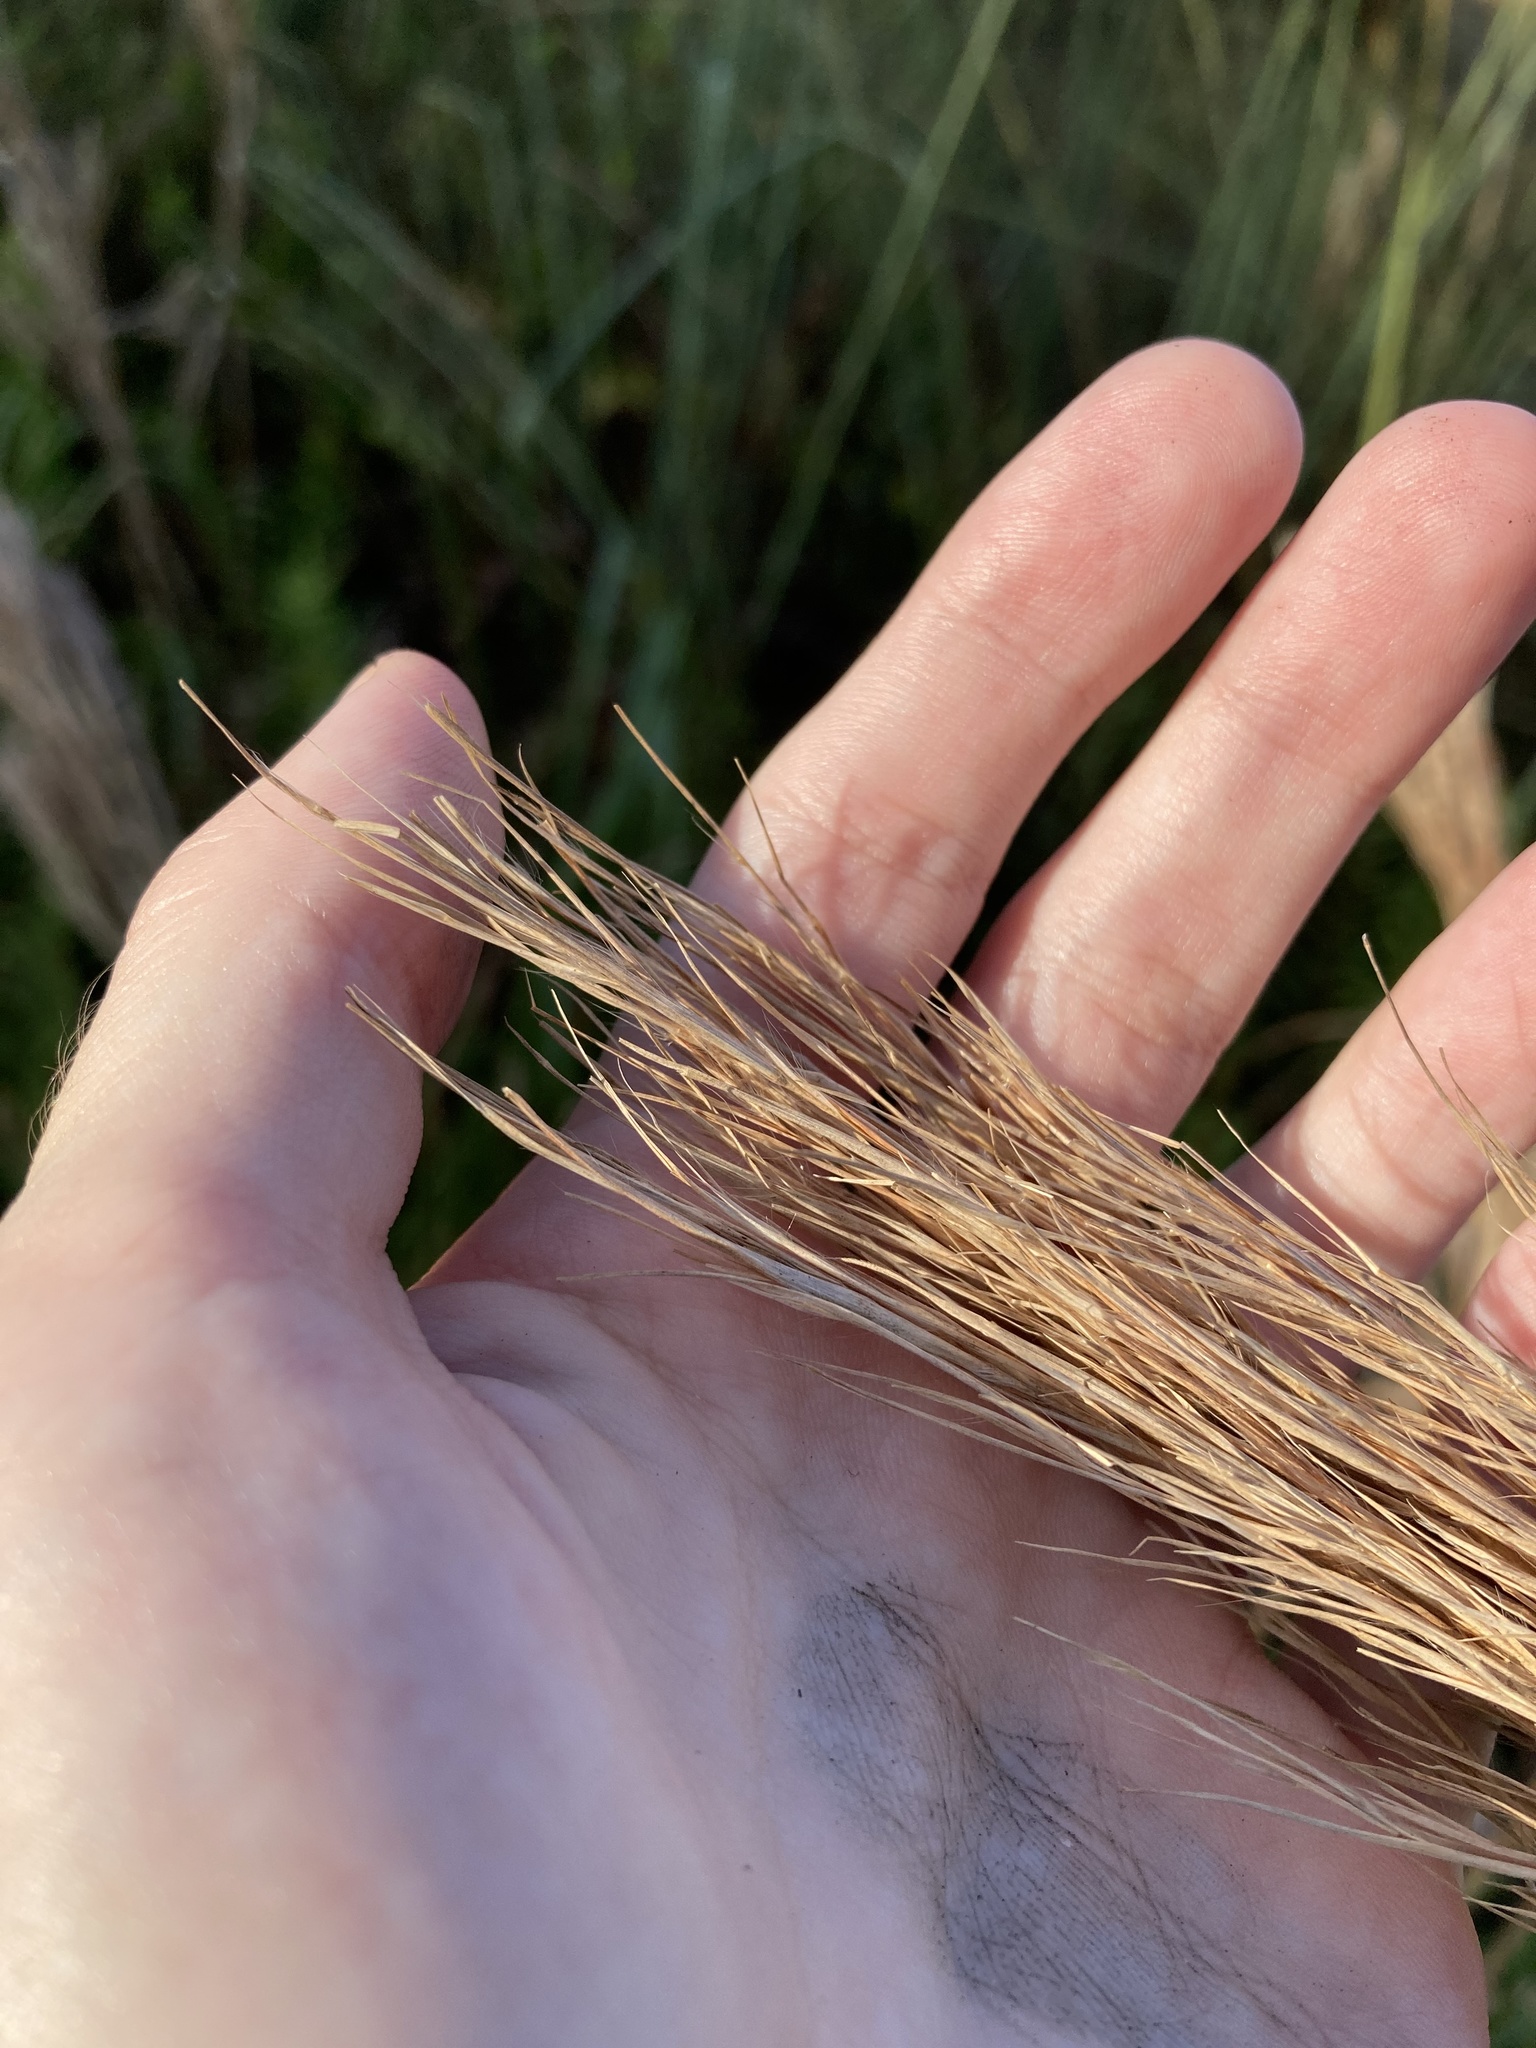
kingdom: Plantae
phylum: Tracheophyta
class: Liliopsida
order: Poales
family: Poaceae
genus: Andropogon
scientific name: Andropogon tenuispatheus
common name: Bushy bluestem
